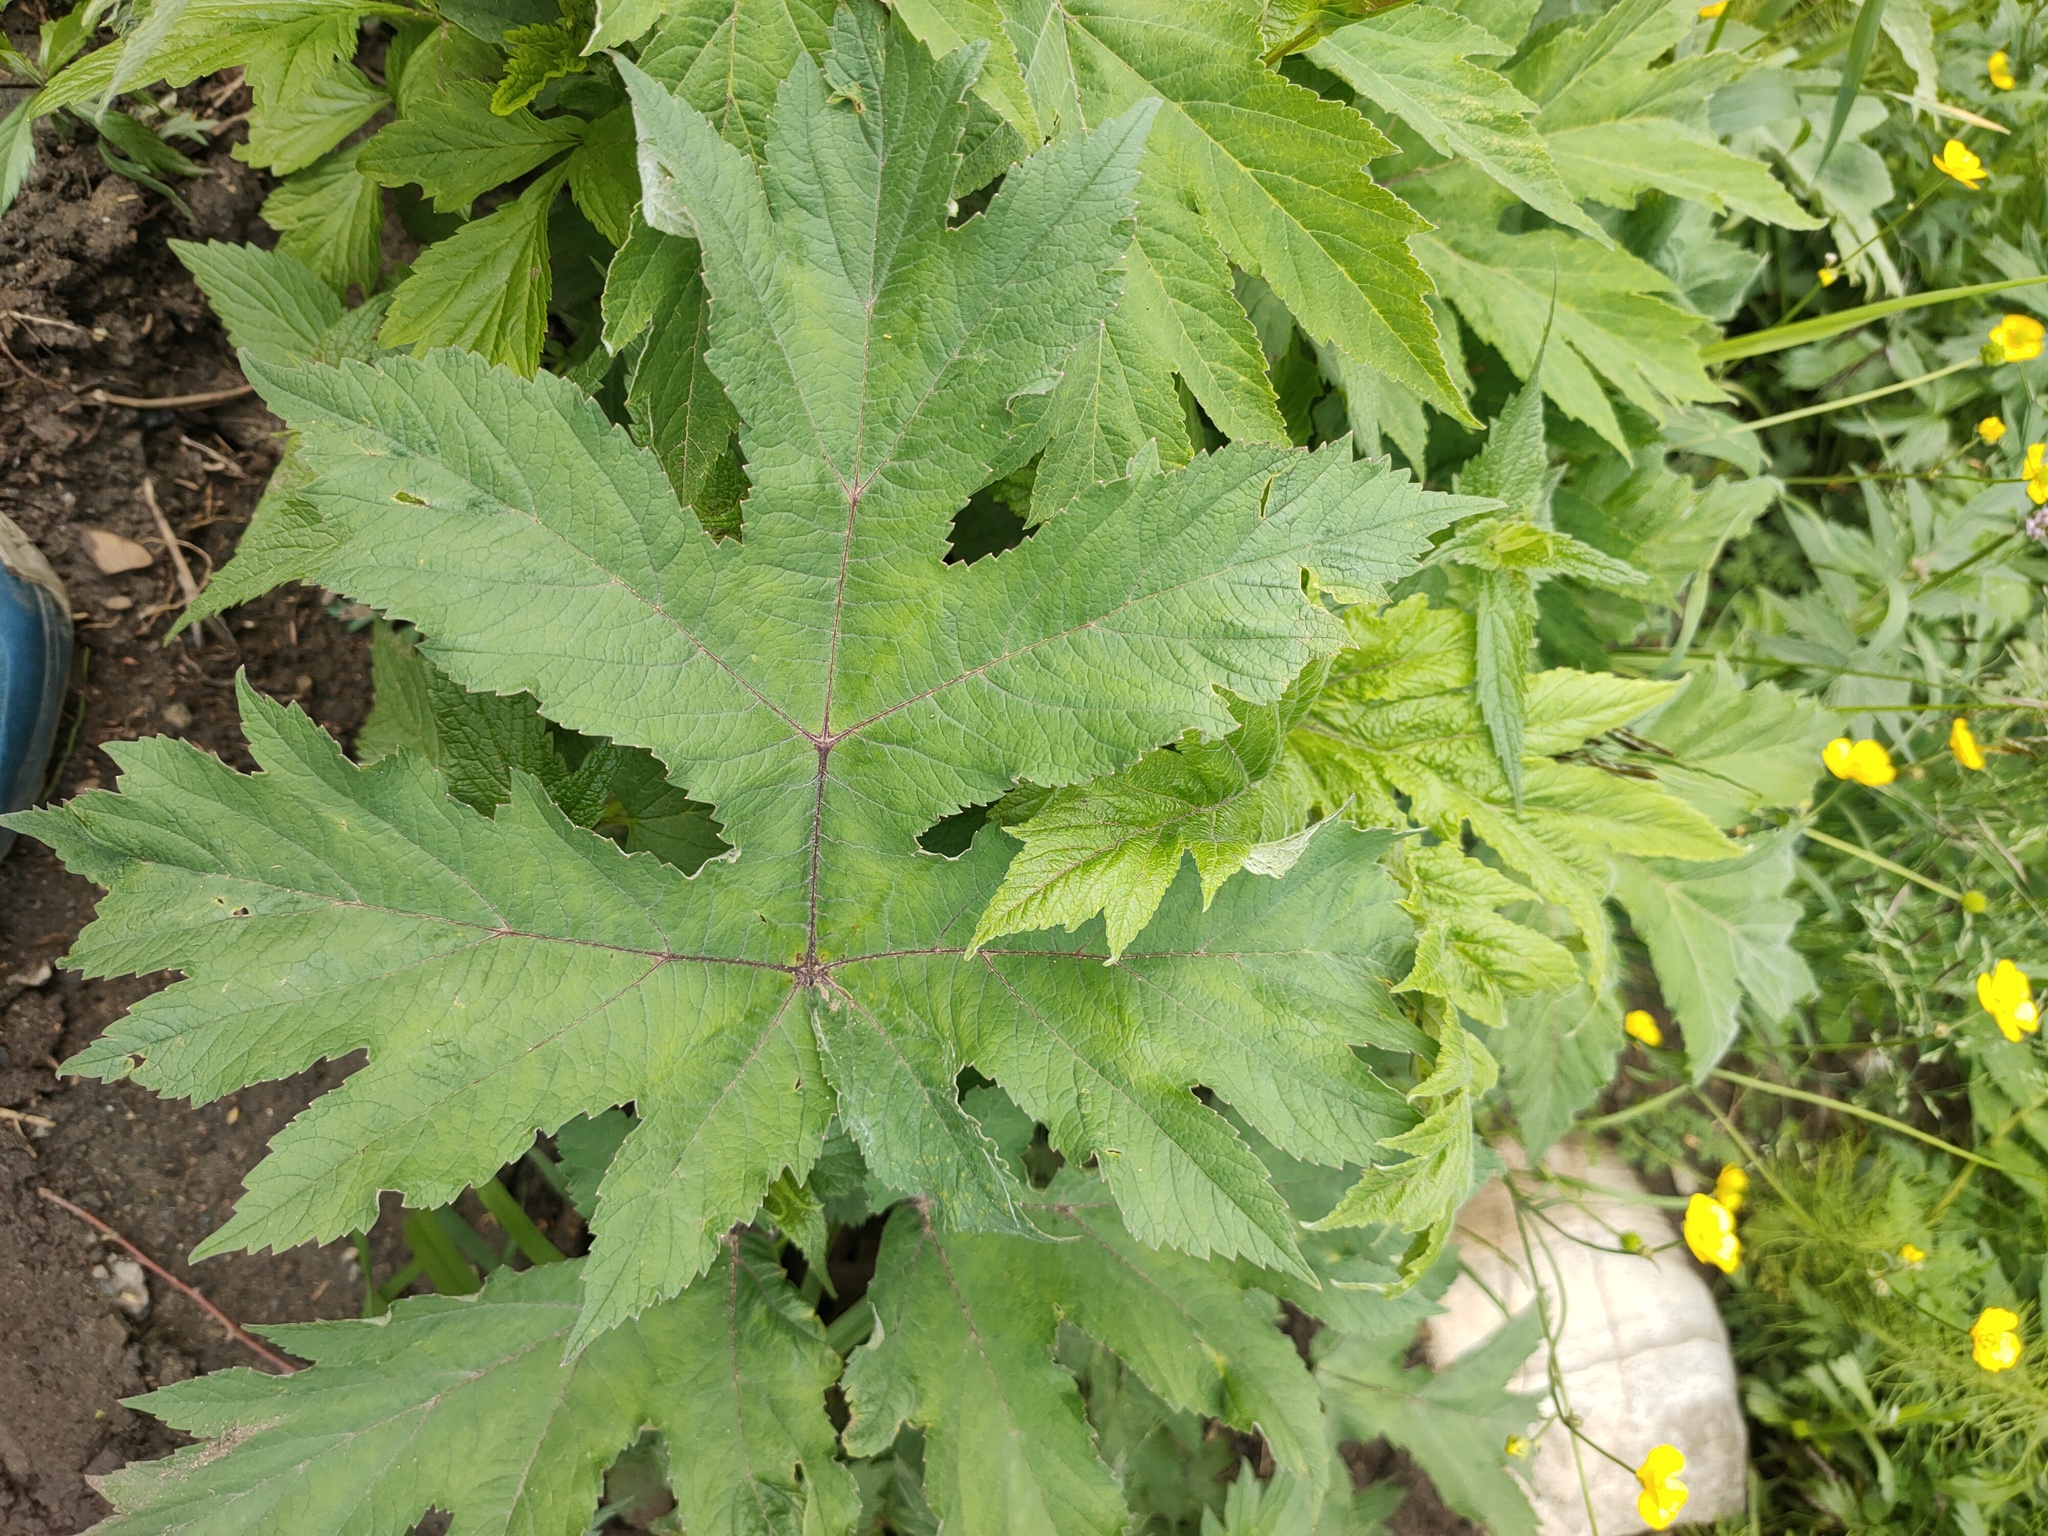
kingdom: Plantae
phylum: Tracheophyta
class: Magnoliopsida
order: Apiales
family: Apiaceae
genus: Heracleum
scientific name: Heracleum dissectum
